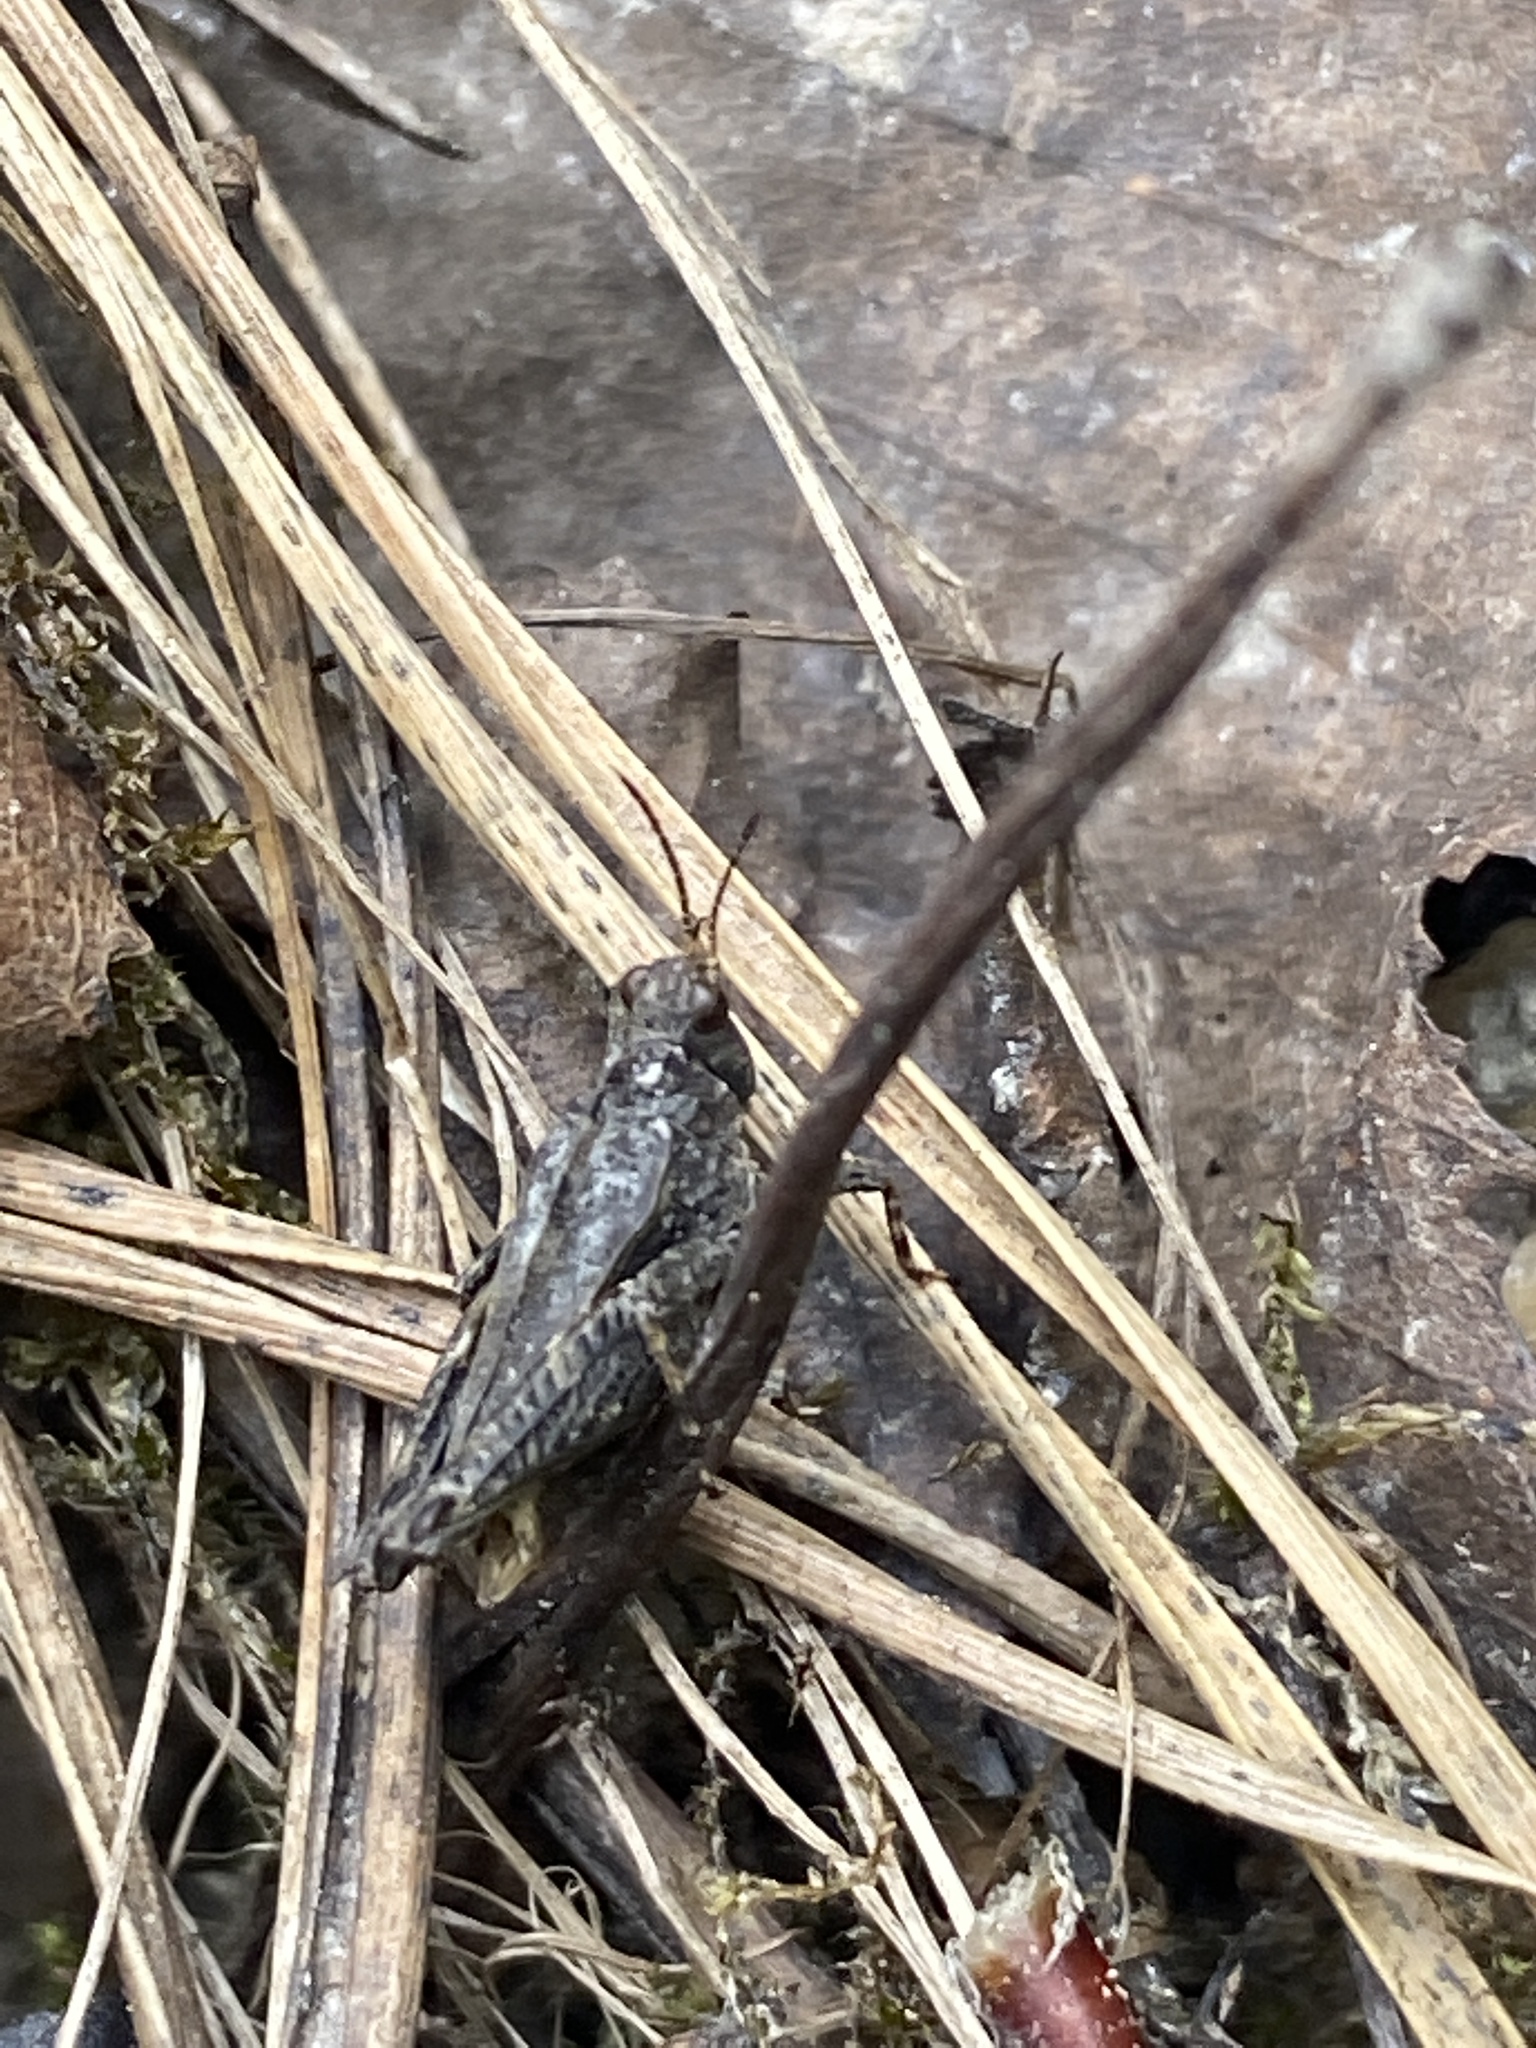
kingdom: Animalia
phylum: Arthropoda
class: Insecta
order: Orthoptera
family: Tetrigidae
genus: Tetrix
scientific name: Tetrix undulata
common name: Common groundhopper
